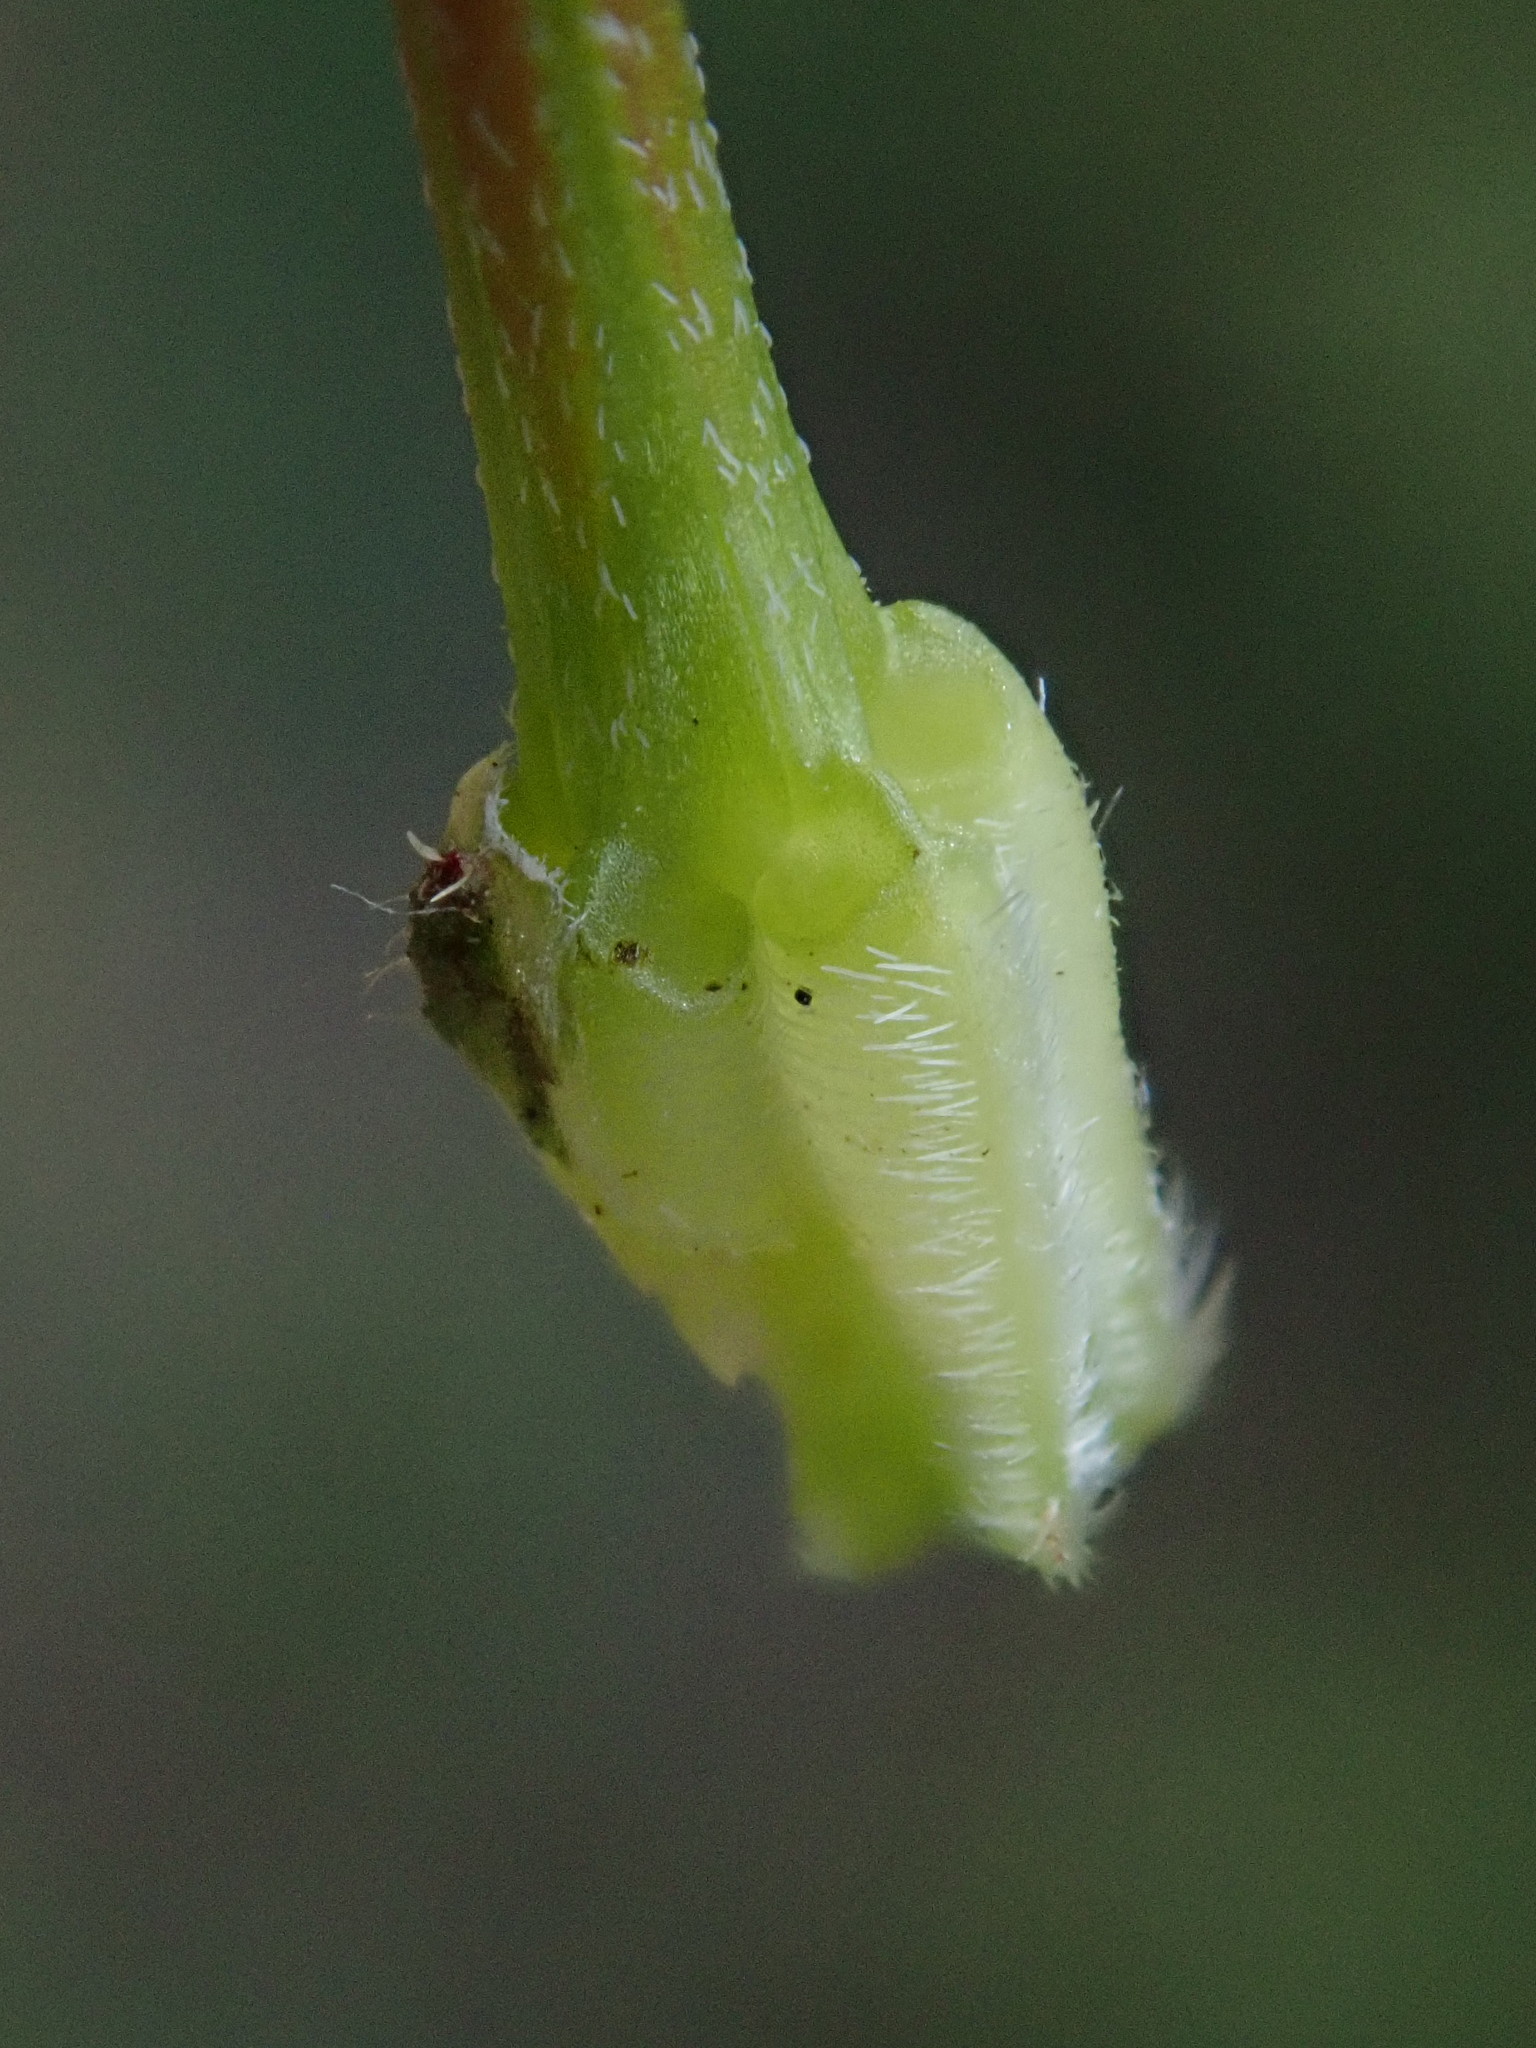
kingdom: Plantae
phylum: Tracheophyta
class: Magnoliopsida
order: Geraniales
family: Geraniaceae
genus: Erodium
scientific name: Erodium cicutarium
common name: Common stork's-bill
